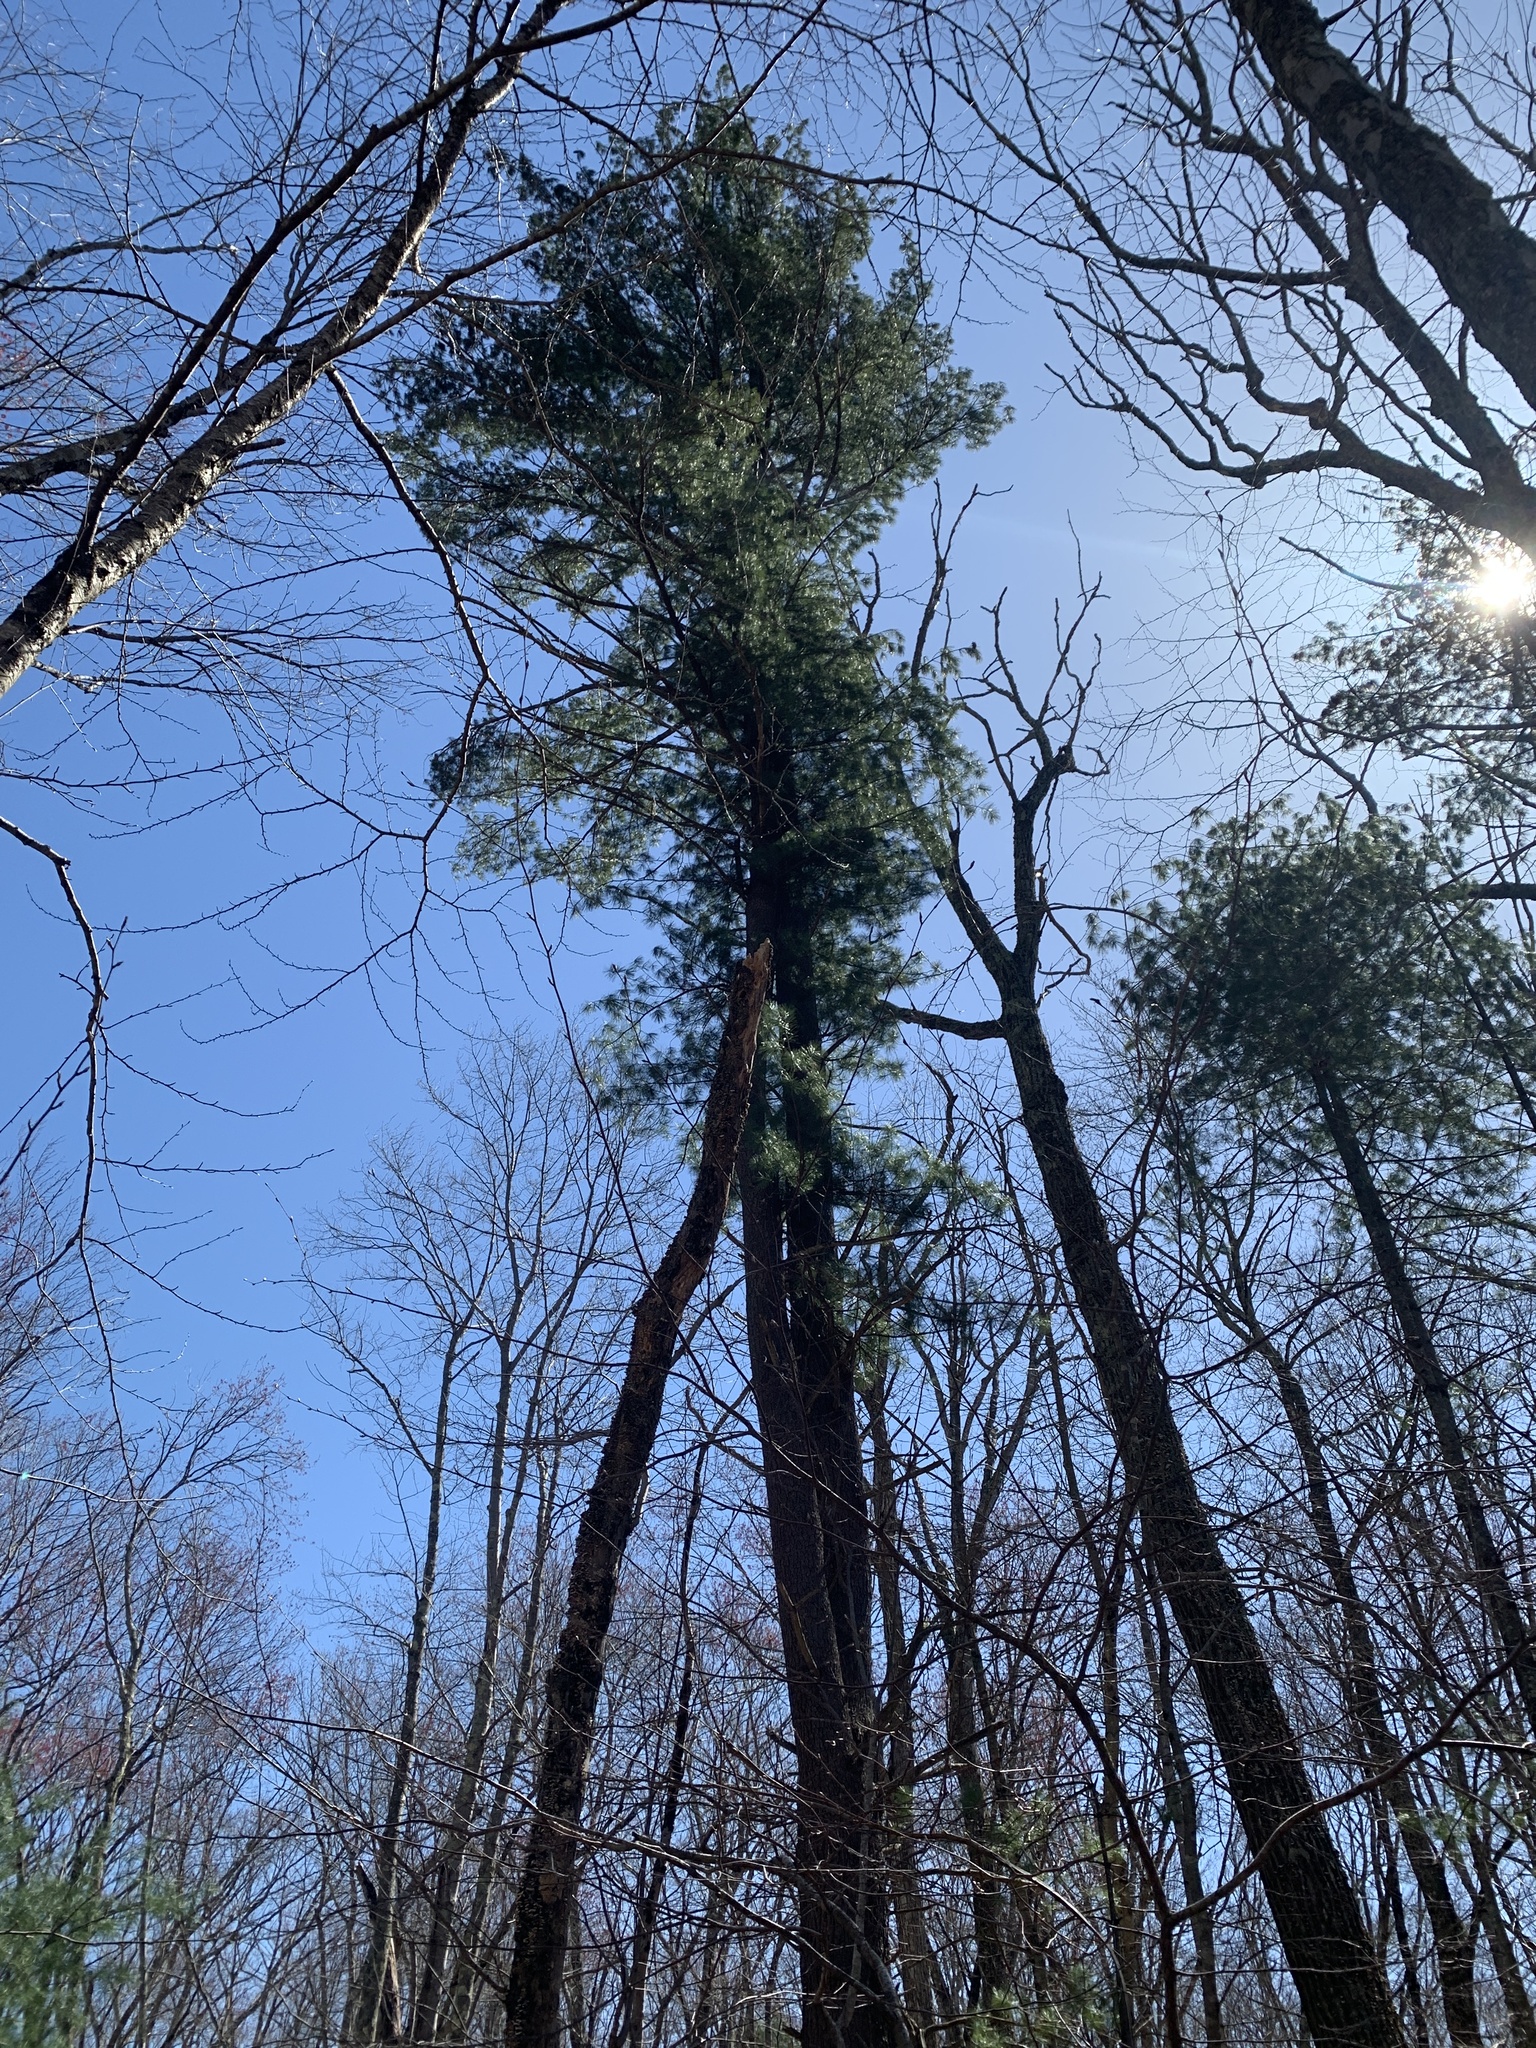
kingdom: Plantae
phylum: Tracheophyta
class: Pinopsida
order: Pinales
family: Pinaceae
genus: Pinus
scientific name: Pinus strobus
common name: Weymouth pine
